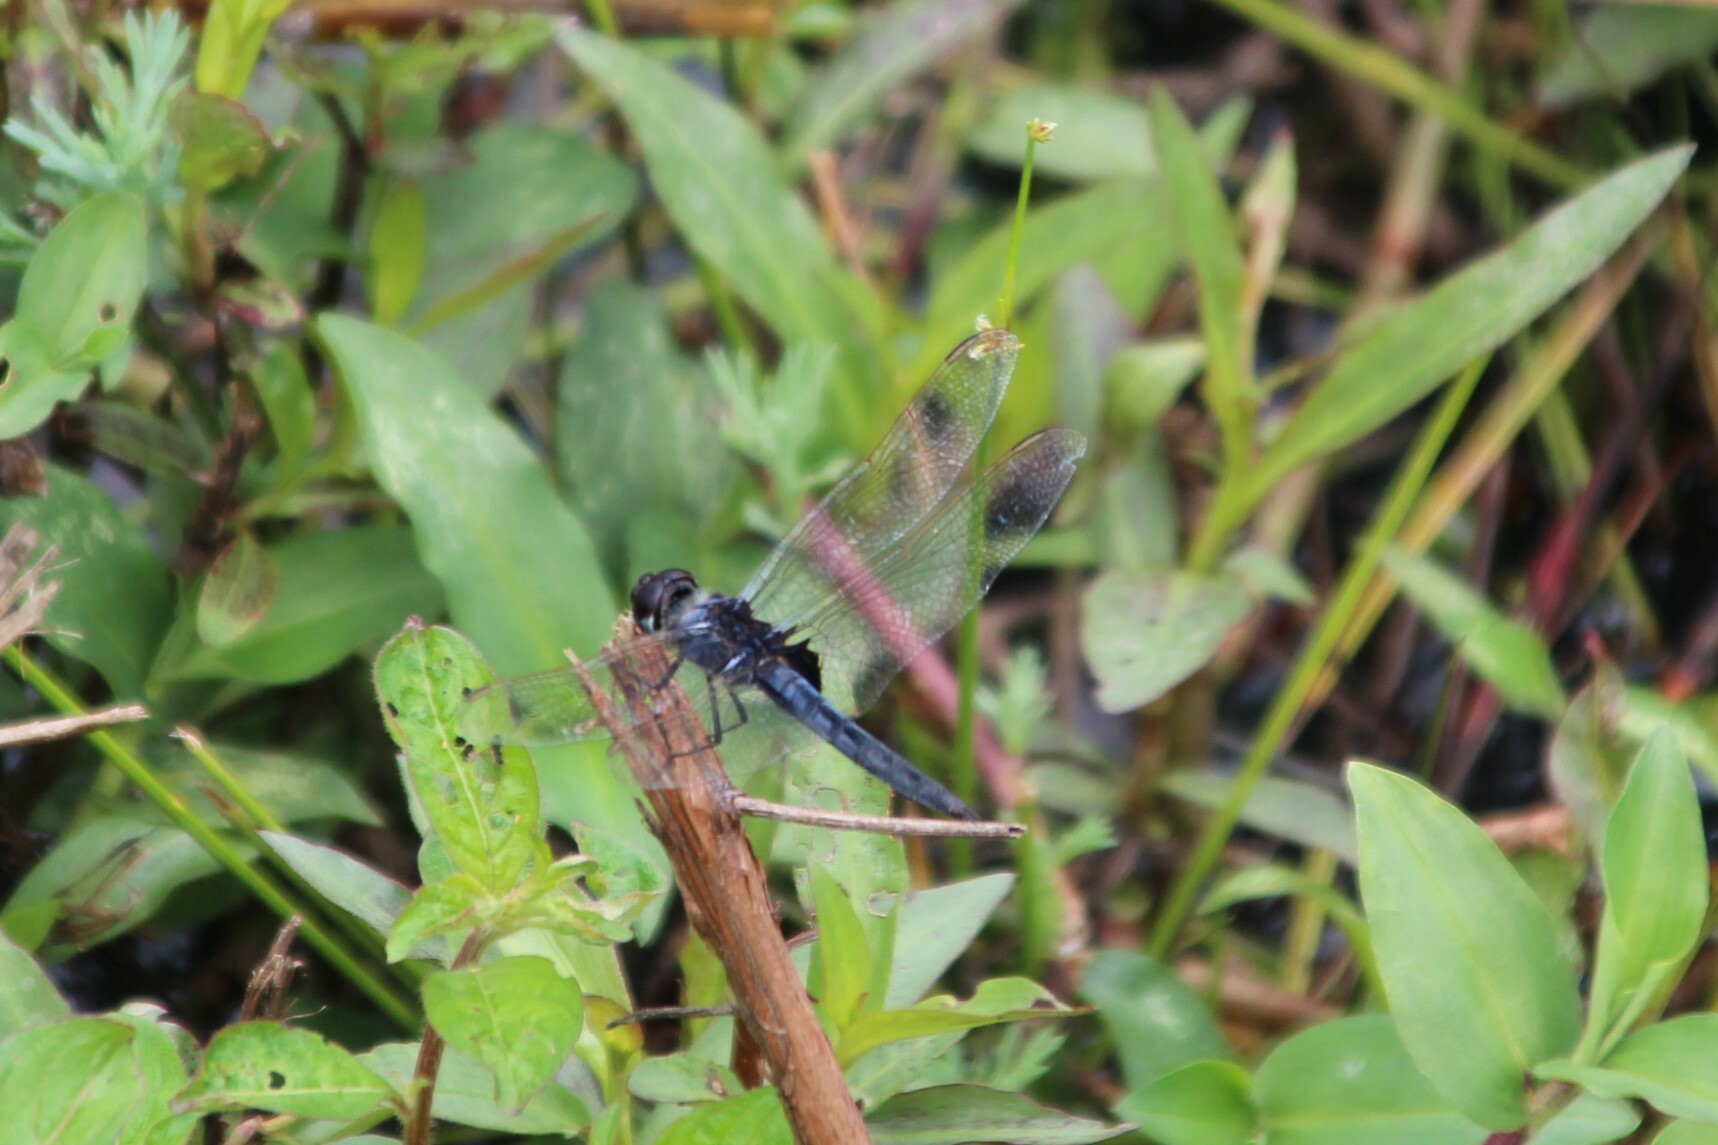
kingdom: Animalia
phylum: Arthropoda
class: Insecta
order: Odonata
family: Libellulidae
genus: Urothemis
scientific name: Urothemis edwardsii
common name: Blue basker
